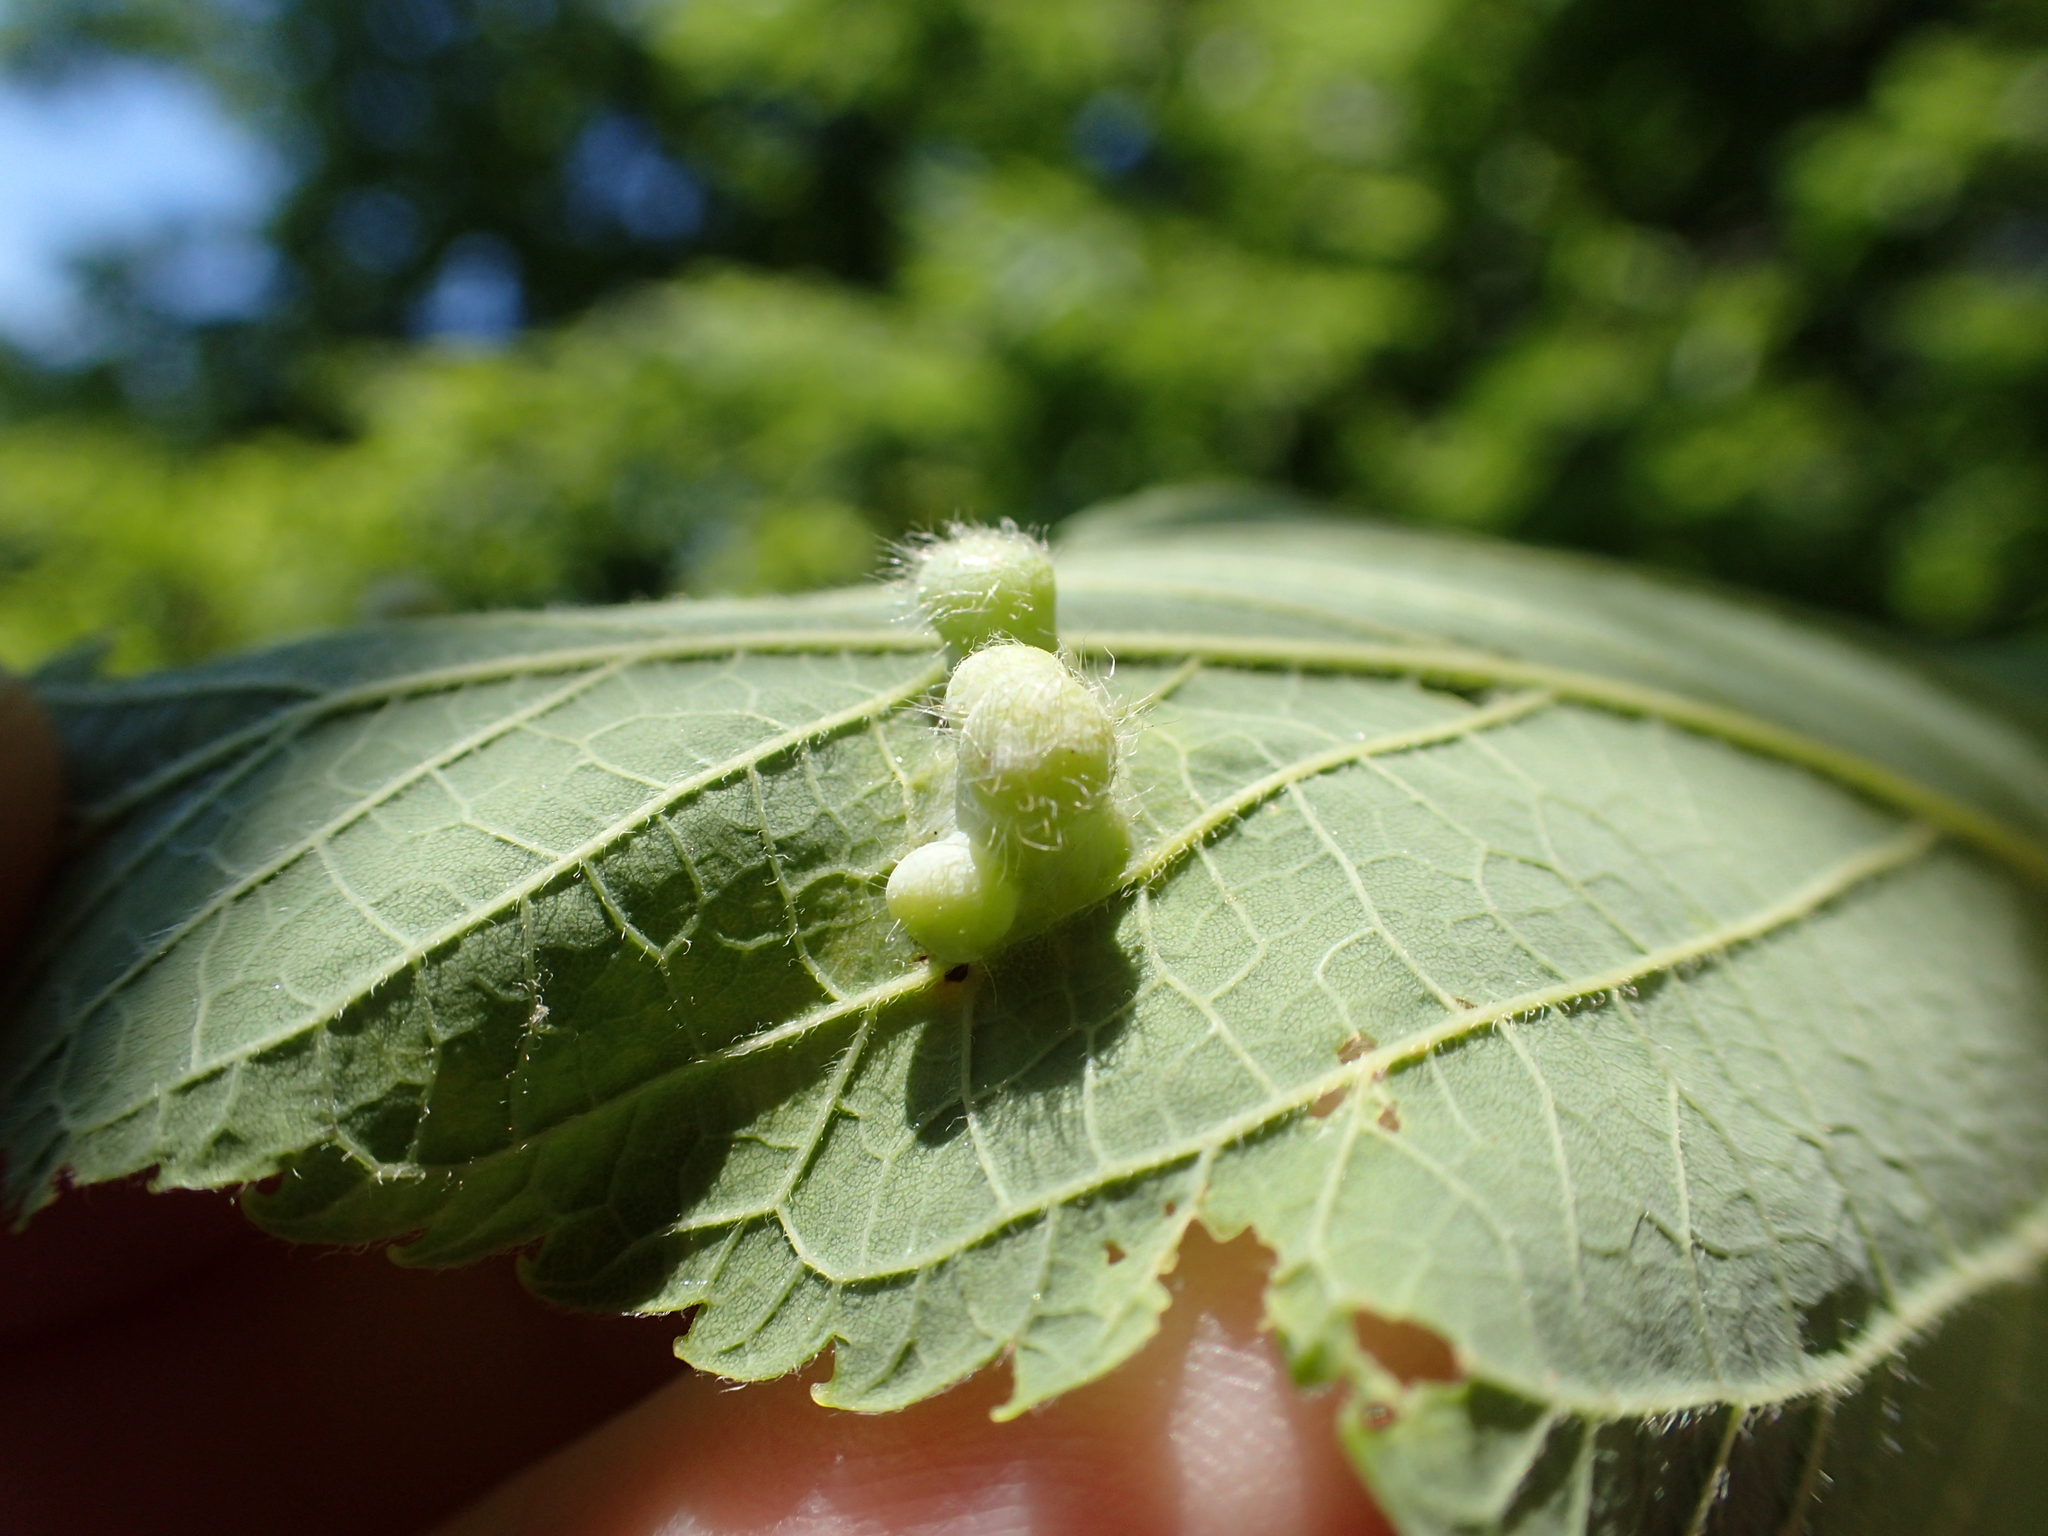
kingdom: Animalia
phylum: Arthropoda
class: Insecta
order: Hemiptera
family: Aphalaridae
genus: Pachypsylla
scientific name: Pachypsylla celtidismamma
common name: Hackberry nipplegall psyllid
